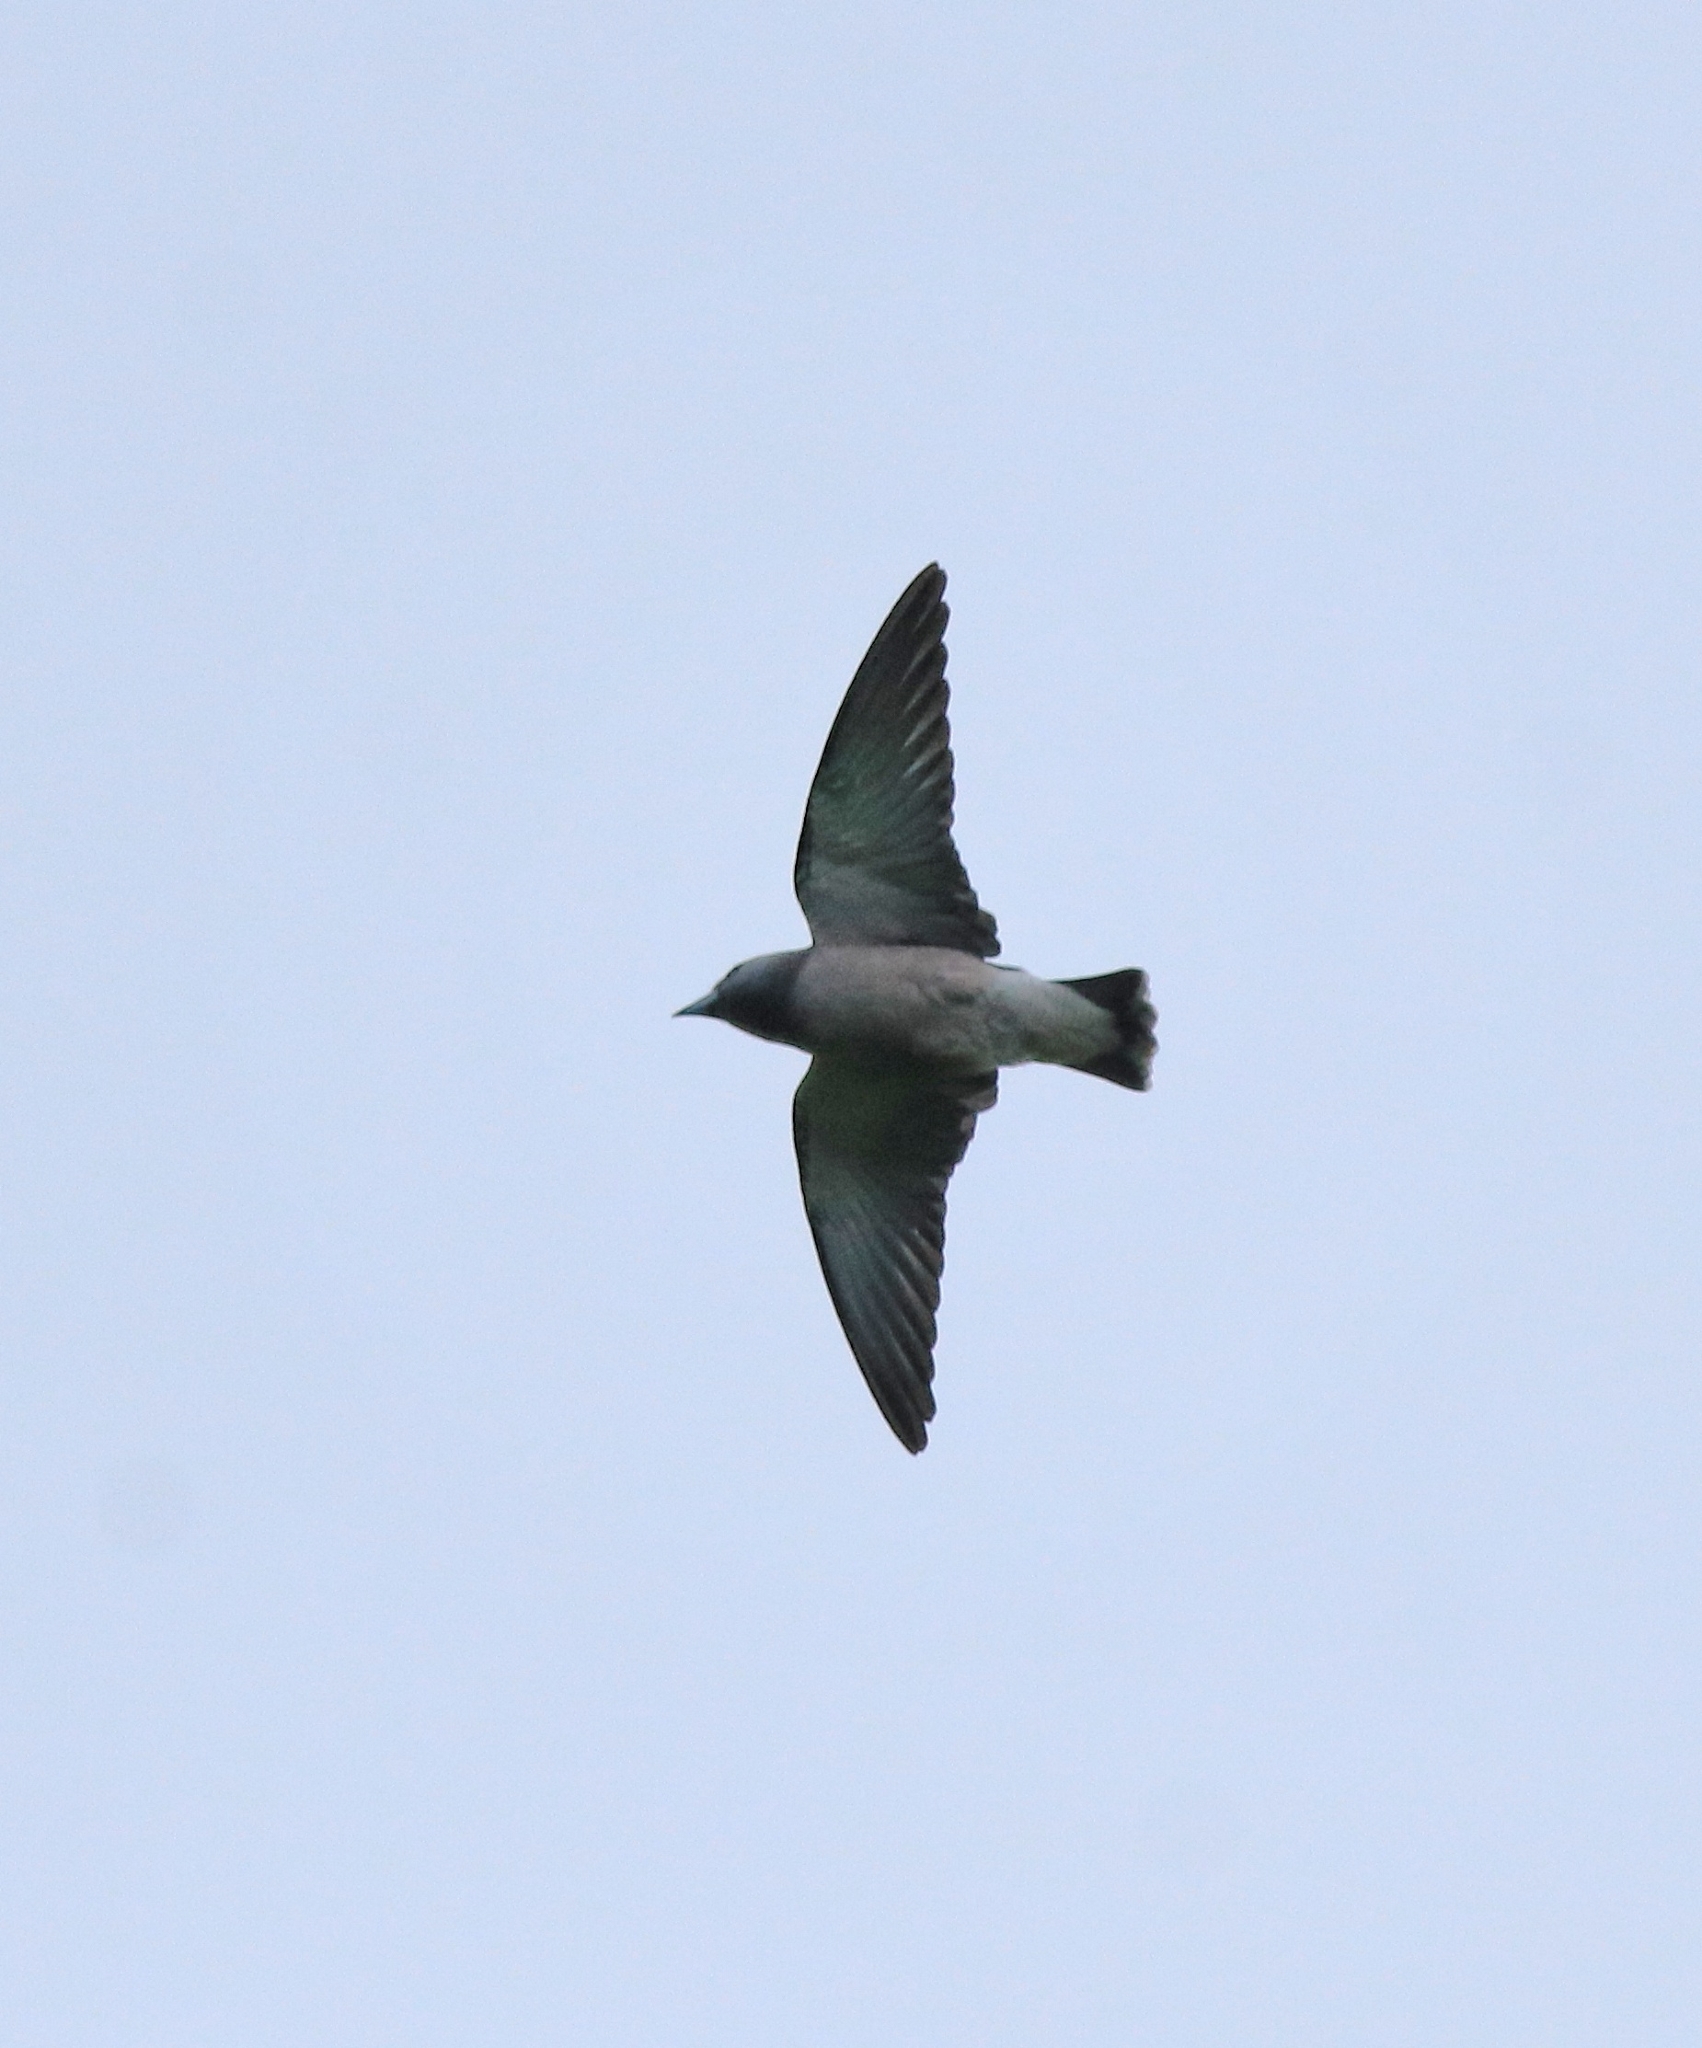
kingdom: Animalia
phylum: Chordata
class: Aves
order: Passeriformes
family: Artamidae
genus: Artamus
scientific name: Artamus fuscus
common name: Ashy woodswallow
